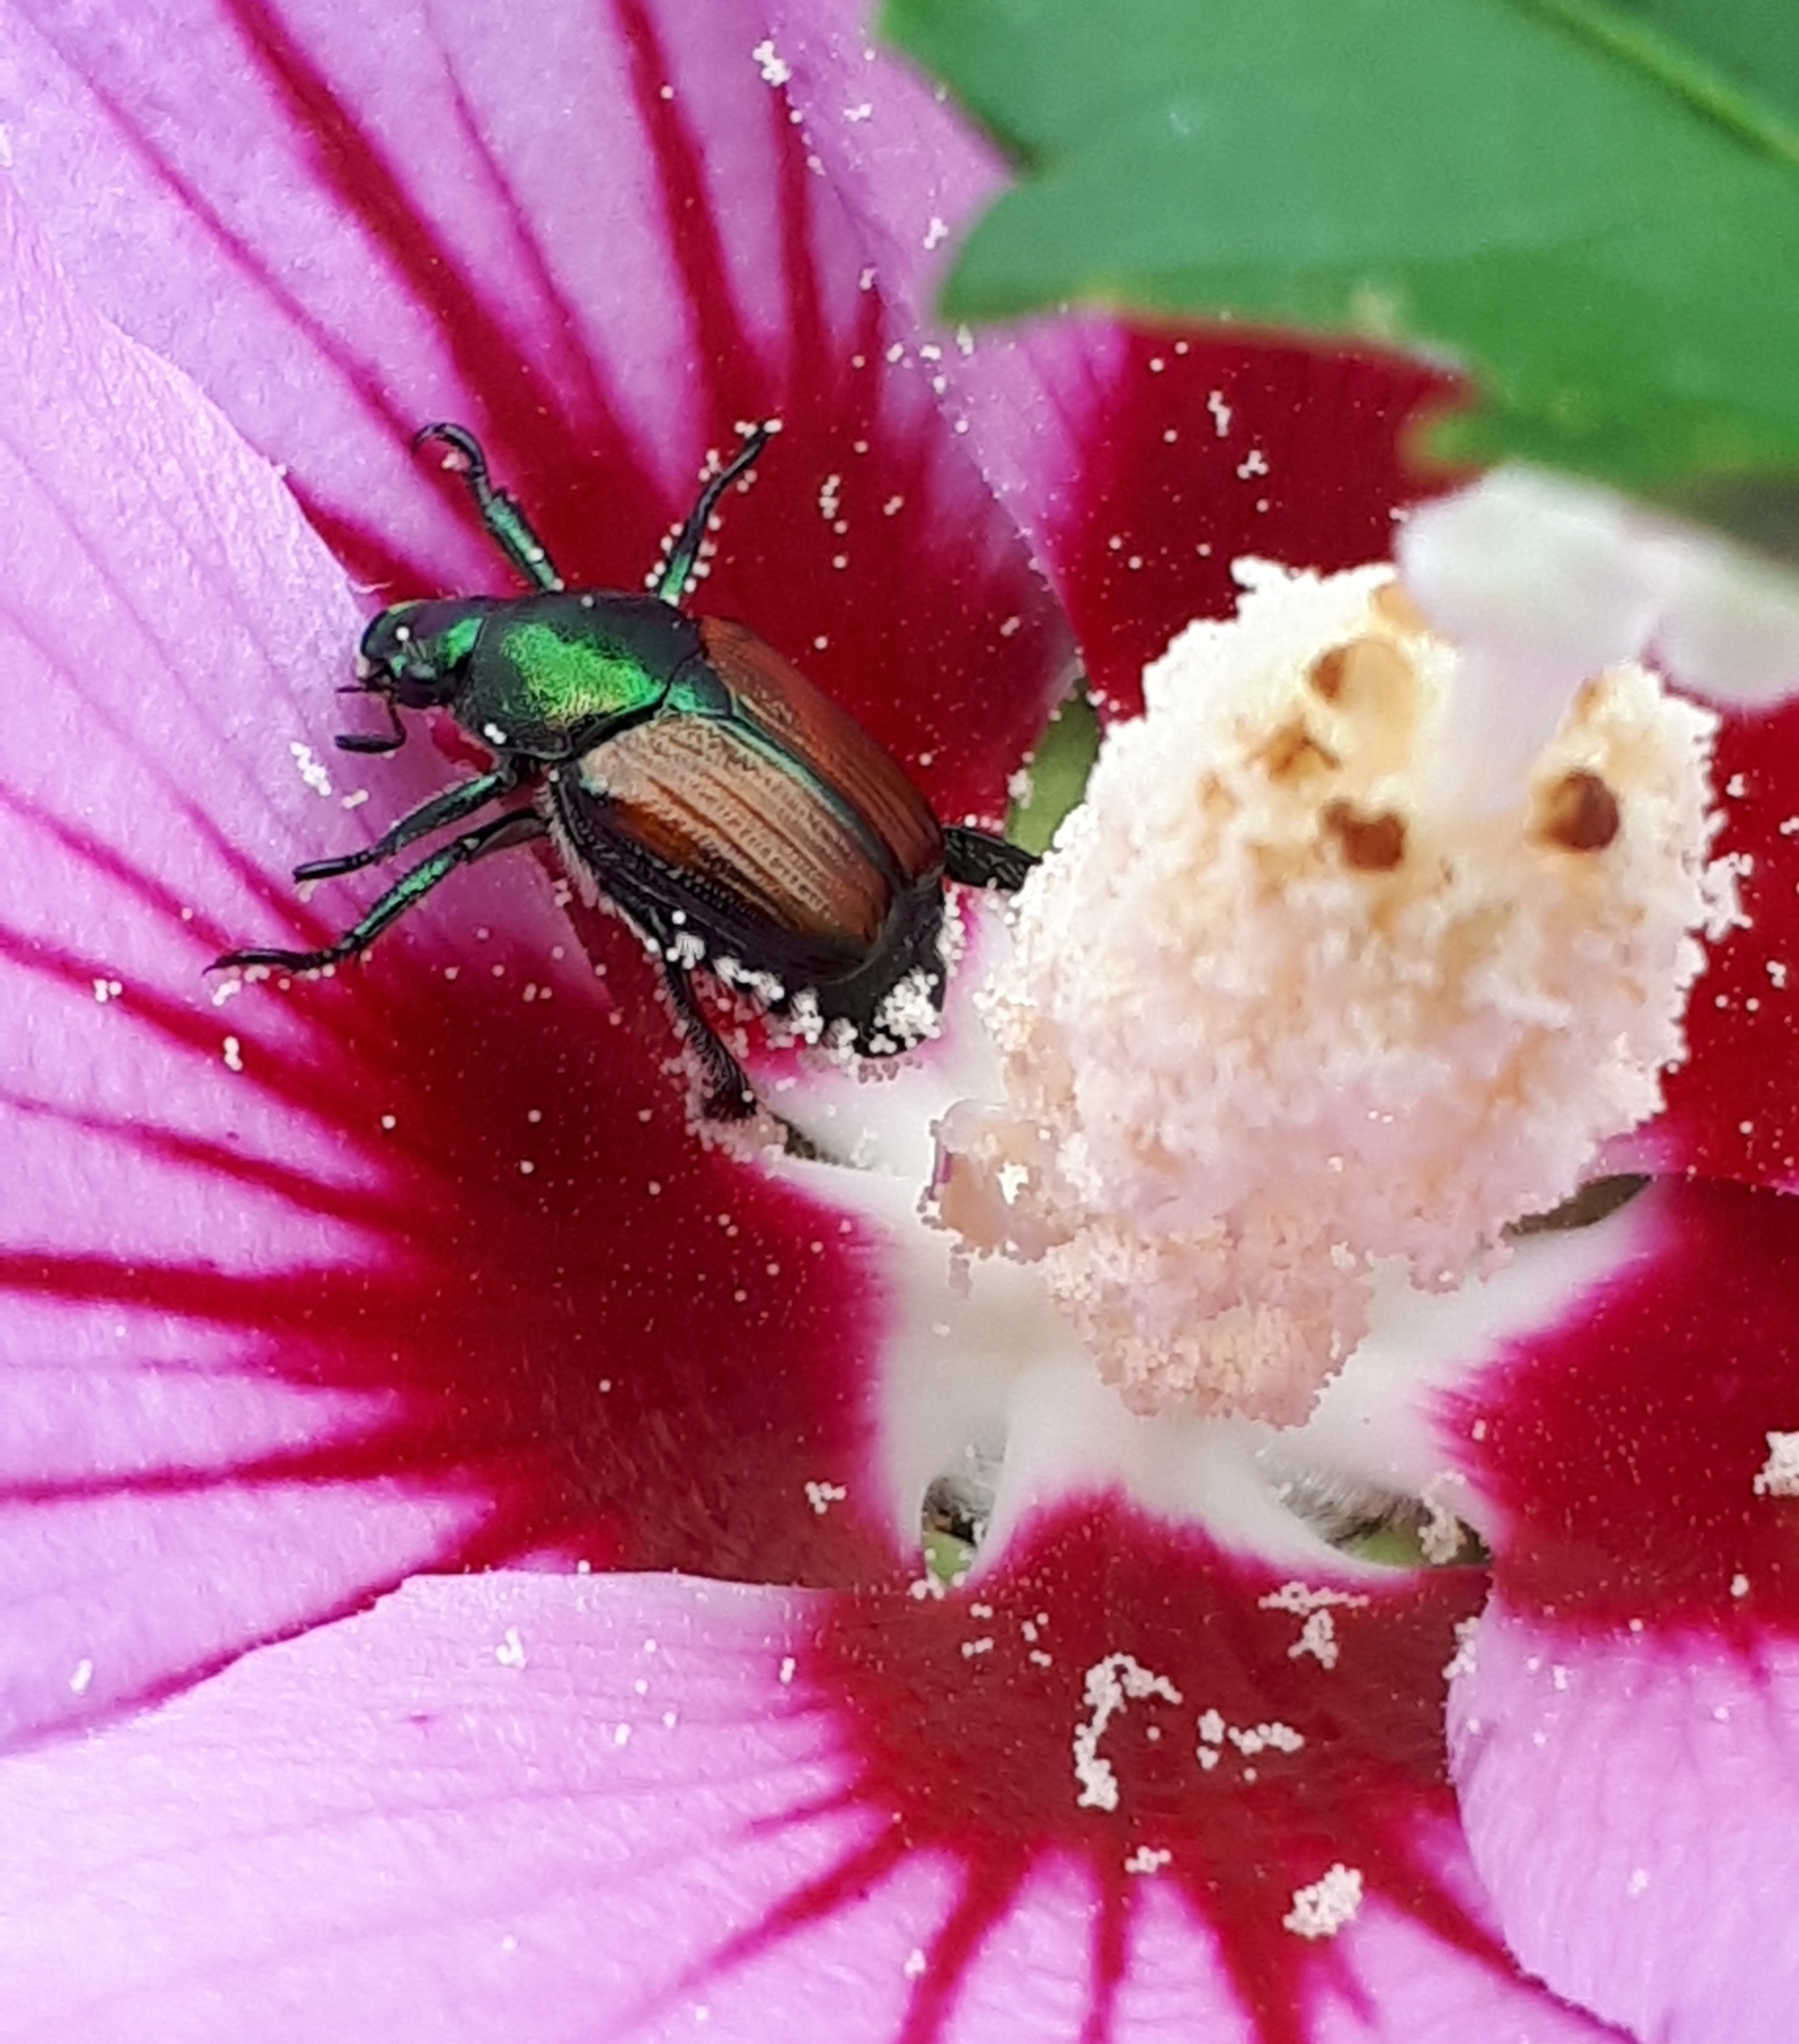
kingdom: Animalia
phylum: Arthropoda
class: Insecta
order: Coleoptera
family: Scarabaeidae
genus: Popillia
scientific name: Popillia japonica
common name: Japanese beetle
